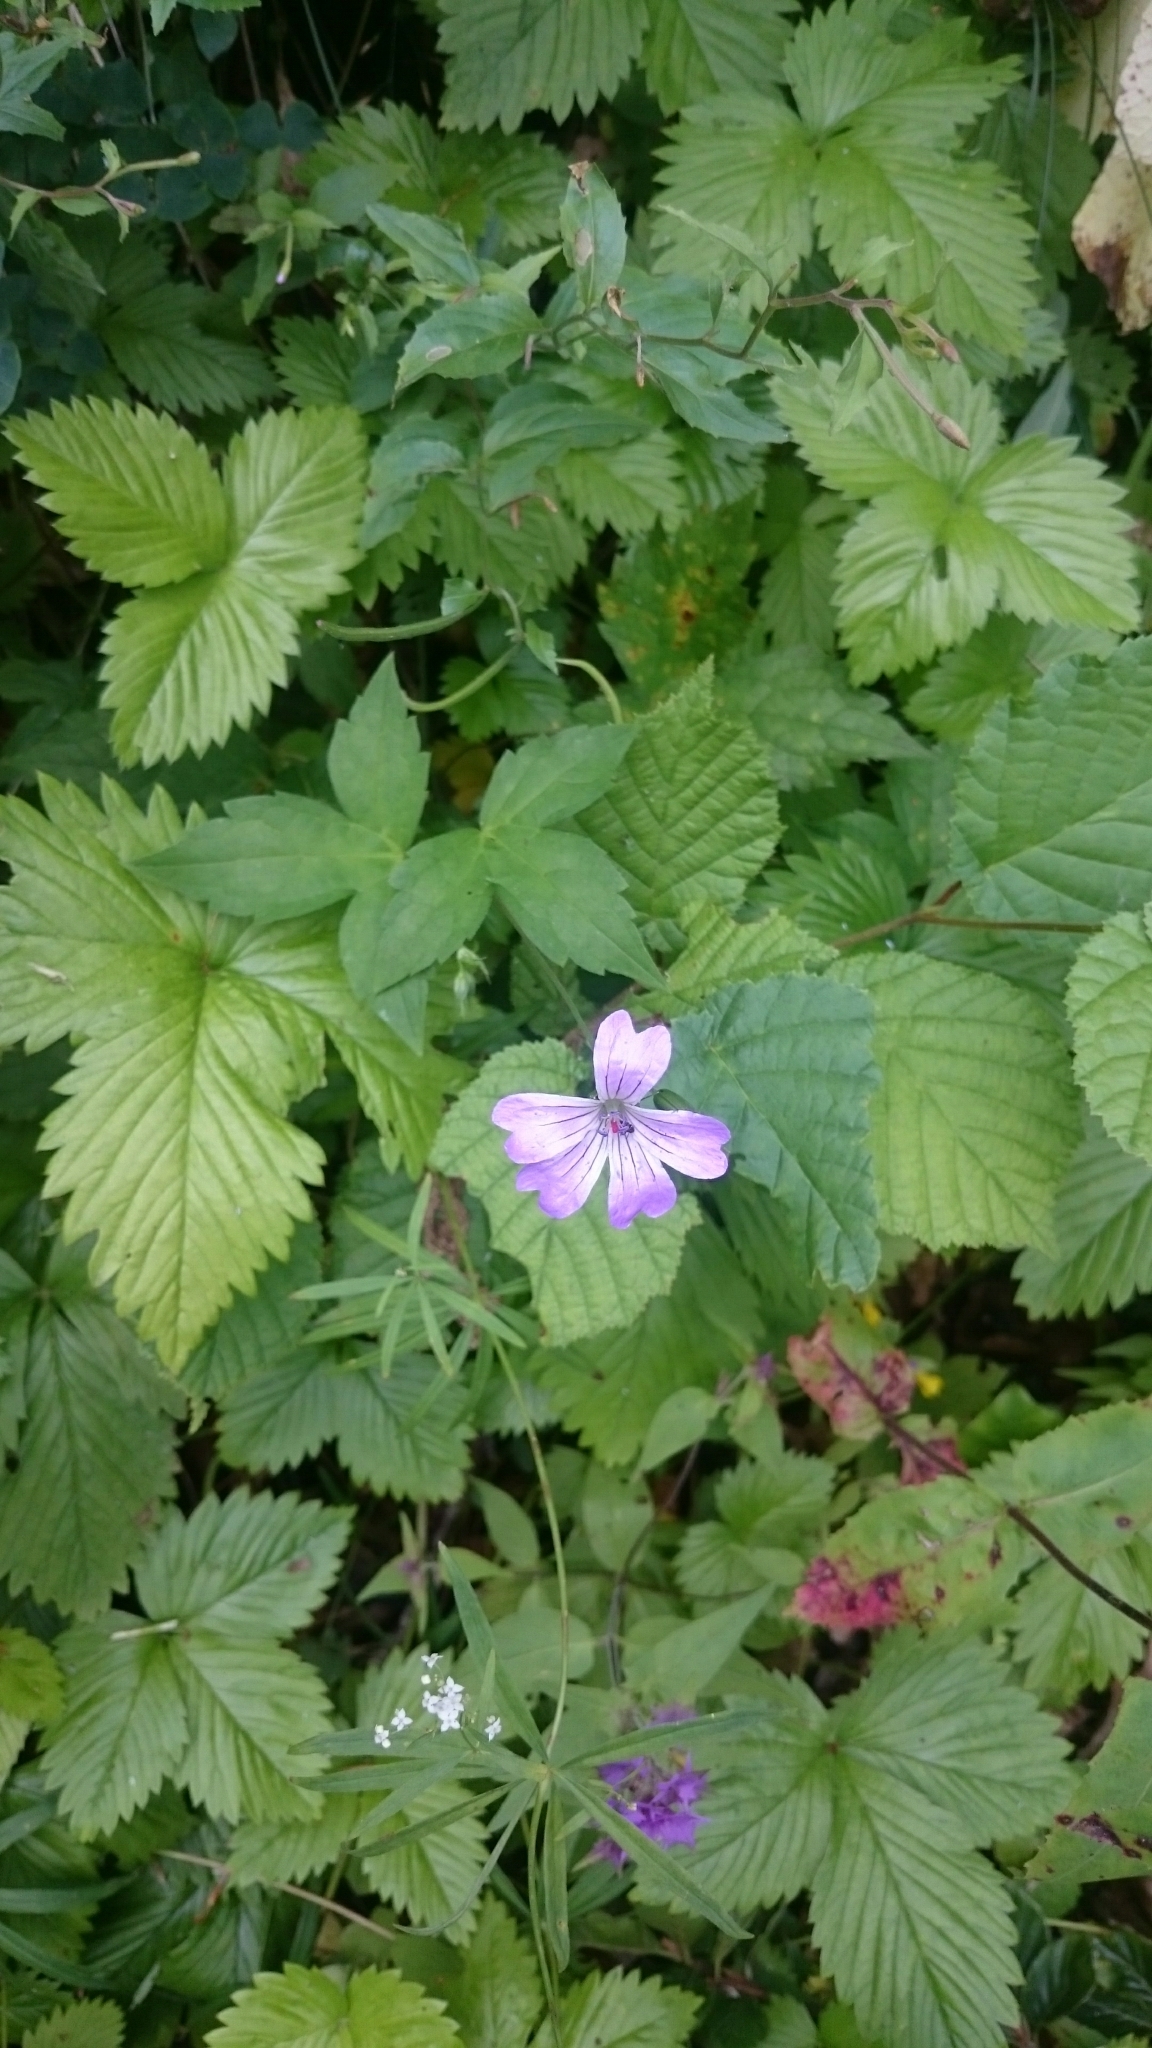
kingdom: Plantae
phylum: Tracheophyta
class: Magnoliopsida
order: Geraniales
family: Geraniaceae
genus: Geranium
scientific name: Geranium nodosum
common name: Knotted crane's-bill
